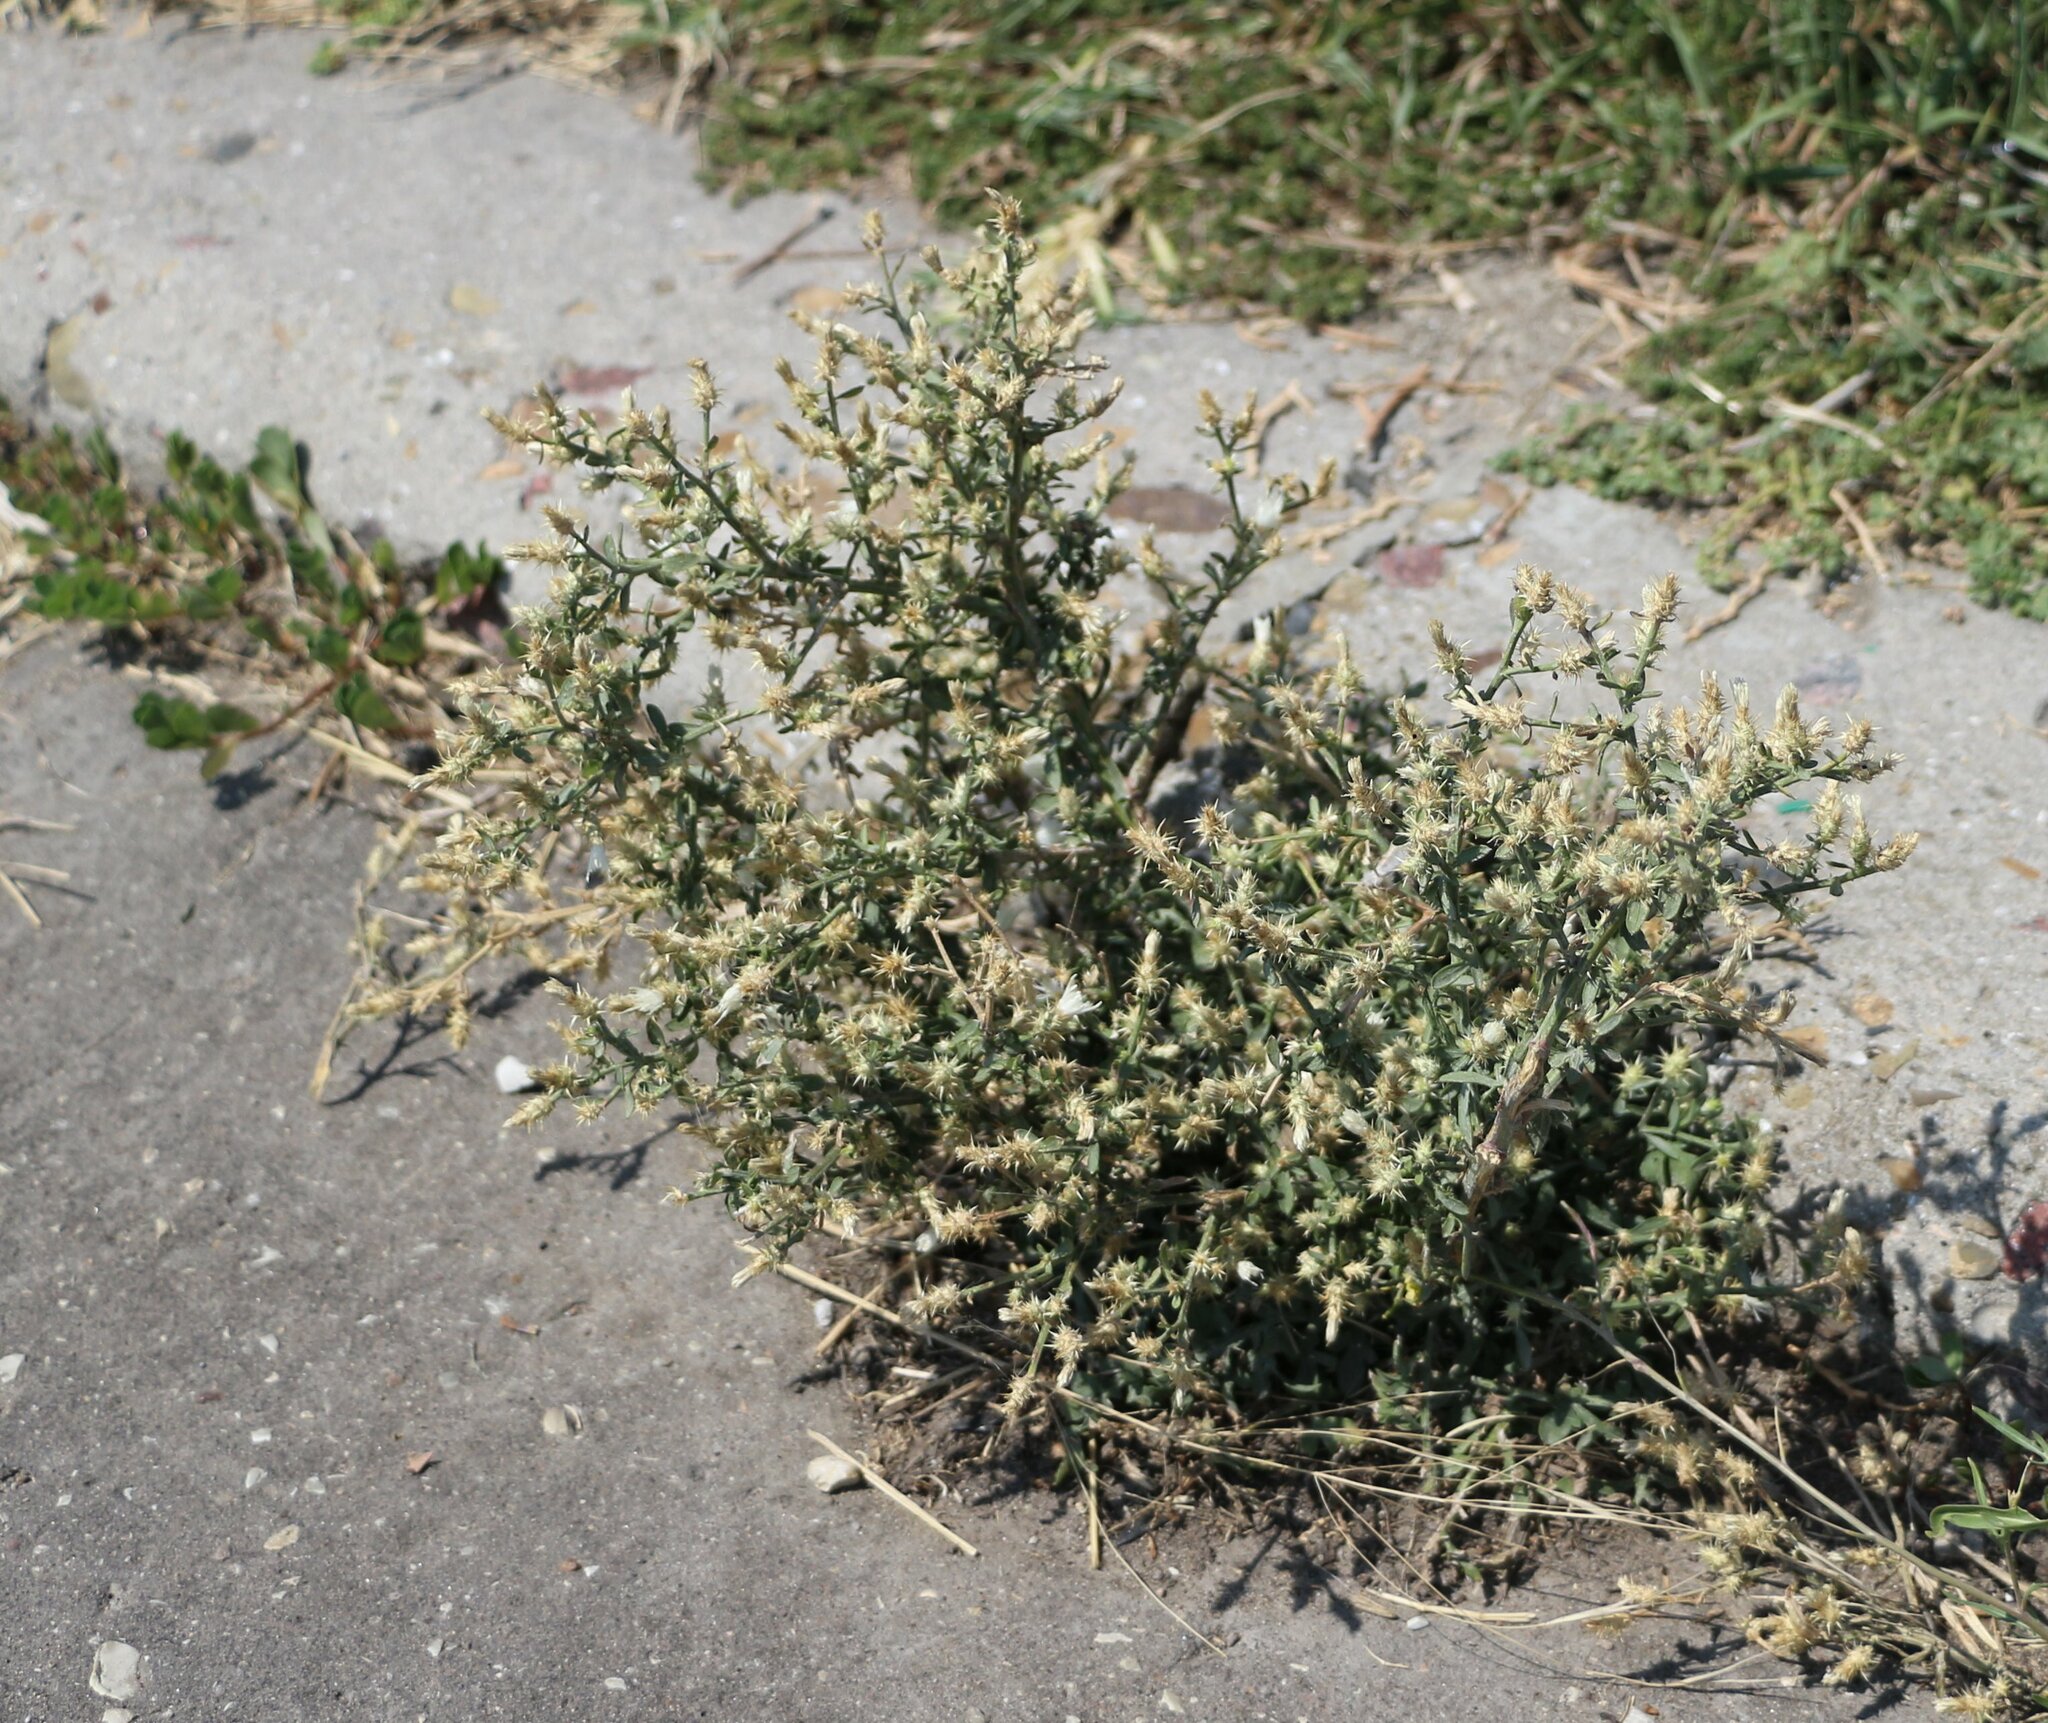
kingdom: Plantae
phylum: Tracheophyta
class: Magnoliopsida
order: Asterales
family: Asteraceae
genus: Centaurea
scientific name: Centaurea diffusa
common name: Diffuse knapweed
